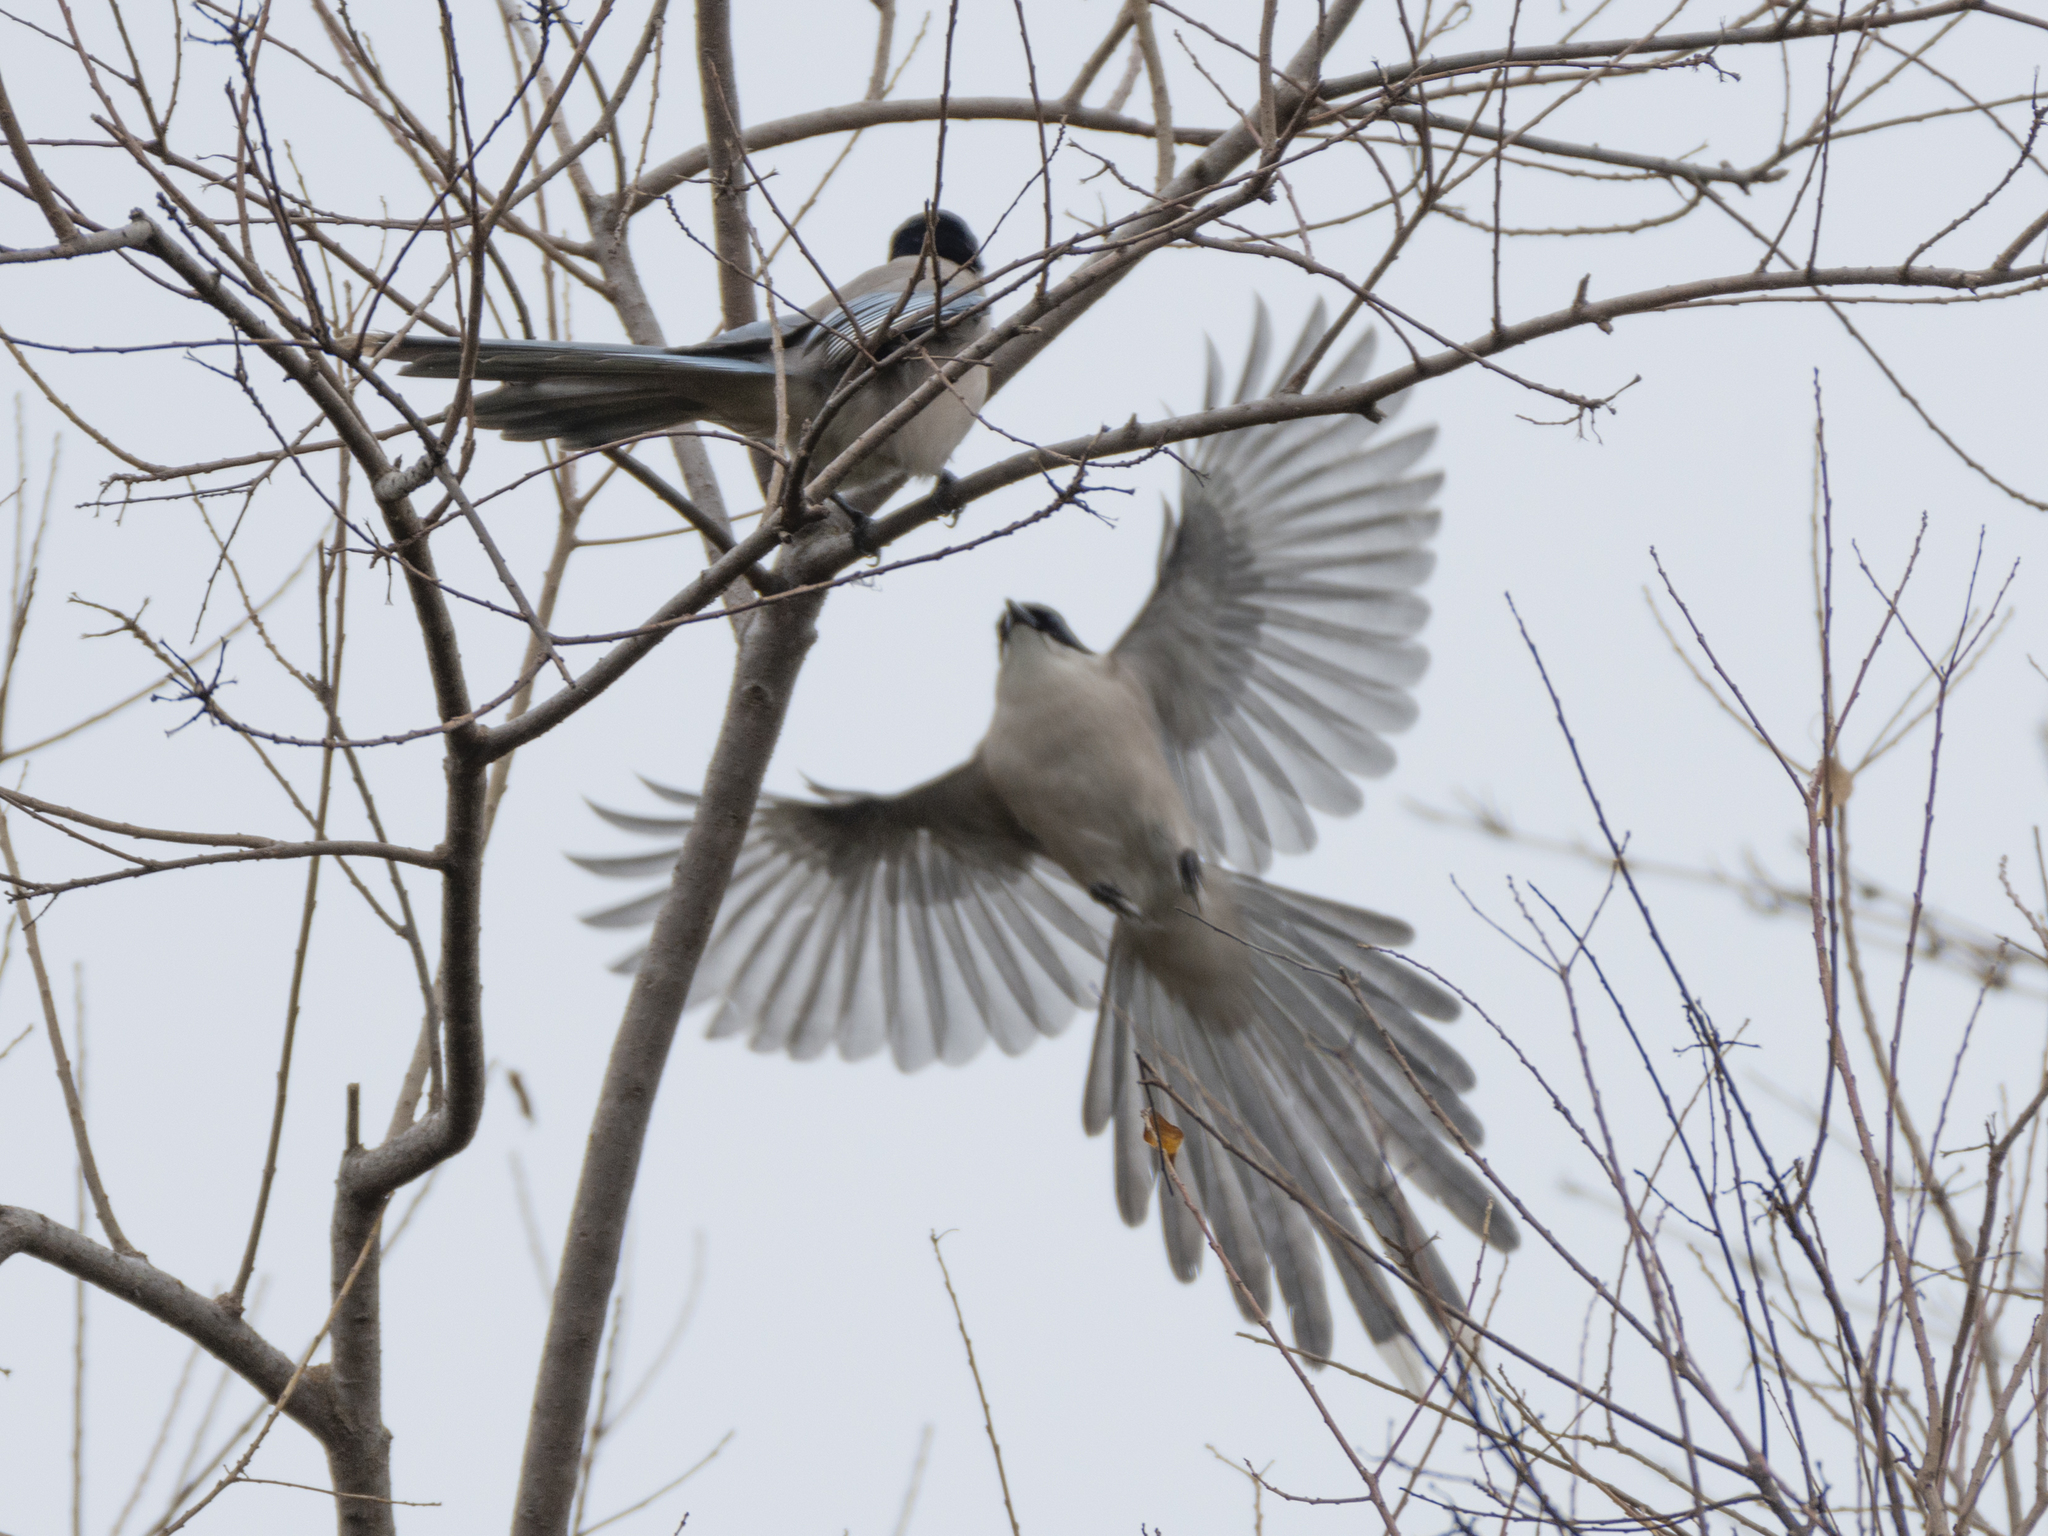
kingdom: Animalia
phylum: Chordata
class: Aves
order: Passeriformes
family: Corvidae
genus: Cyanopica
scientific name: Cyanopica cyanus
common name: Azure-winged magpie
